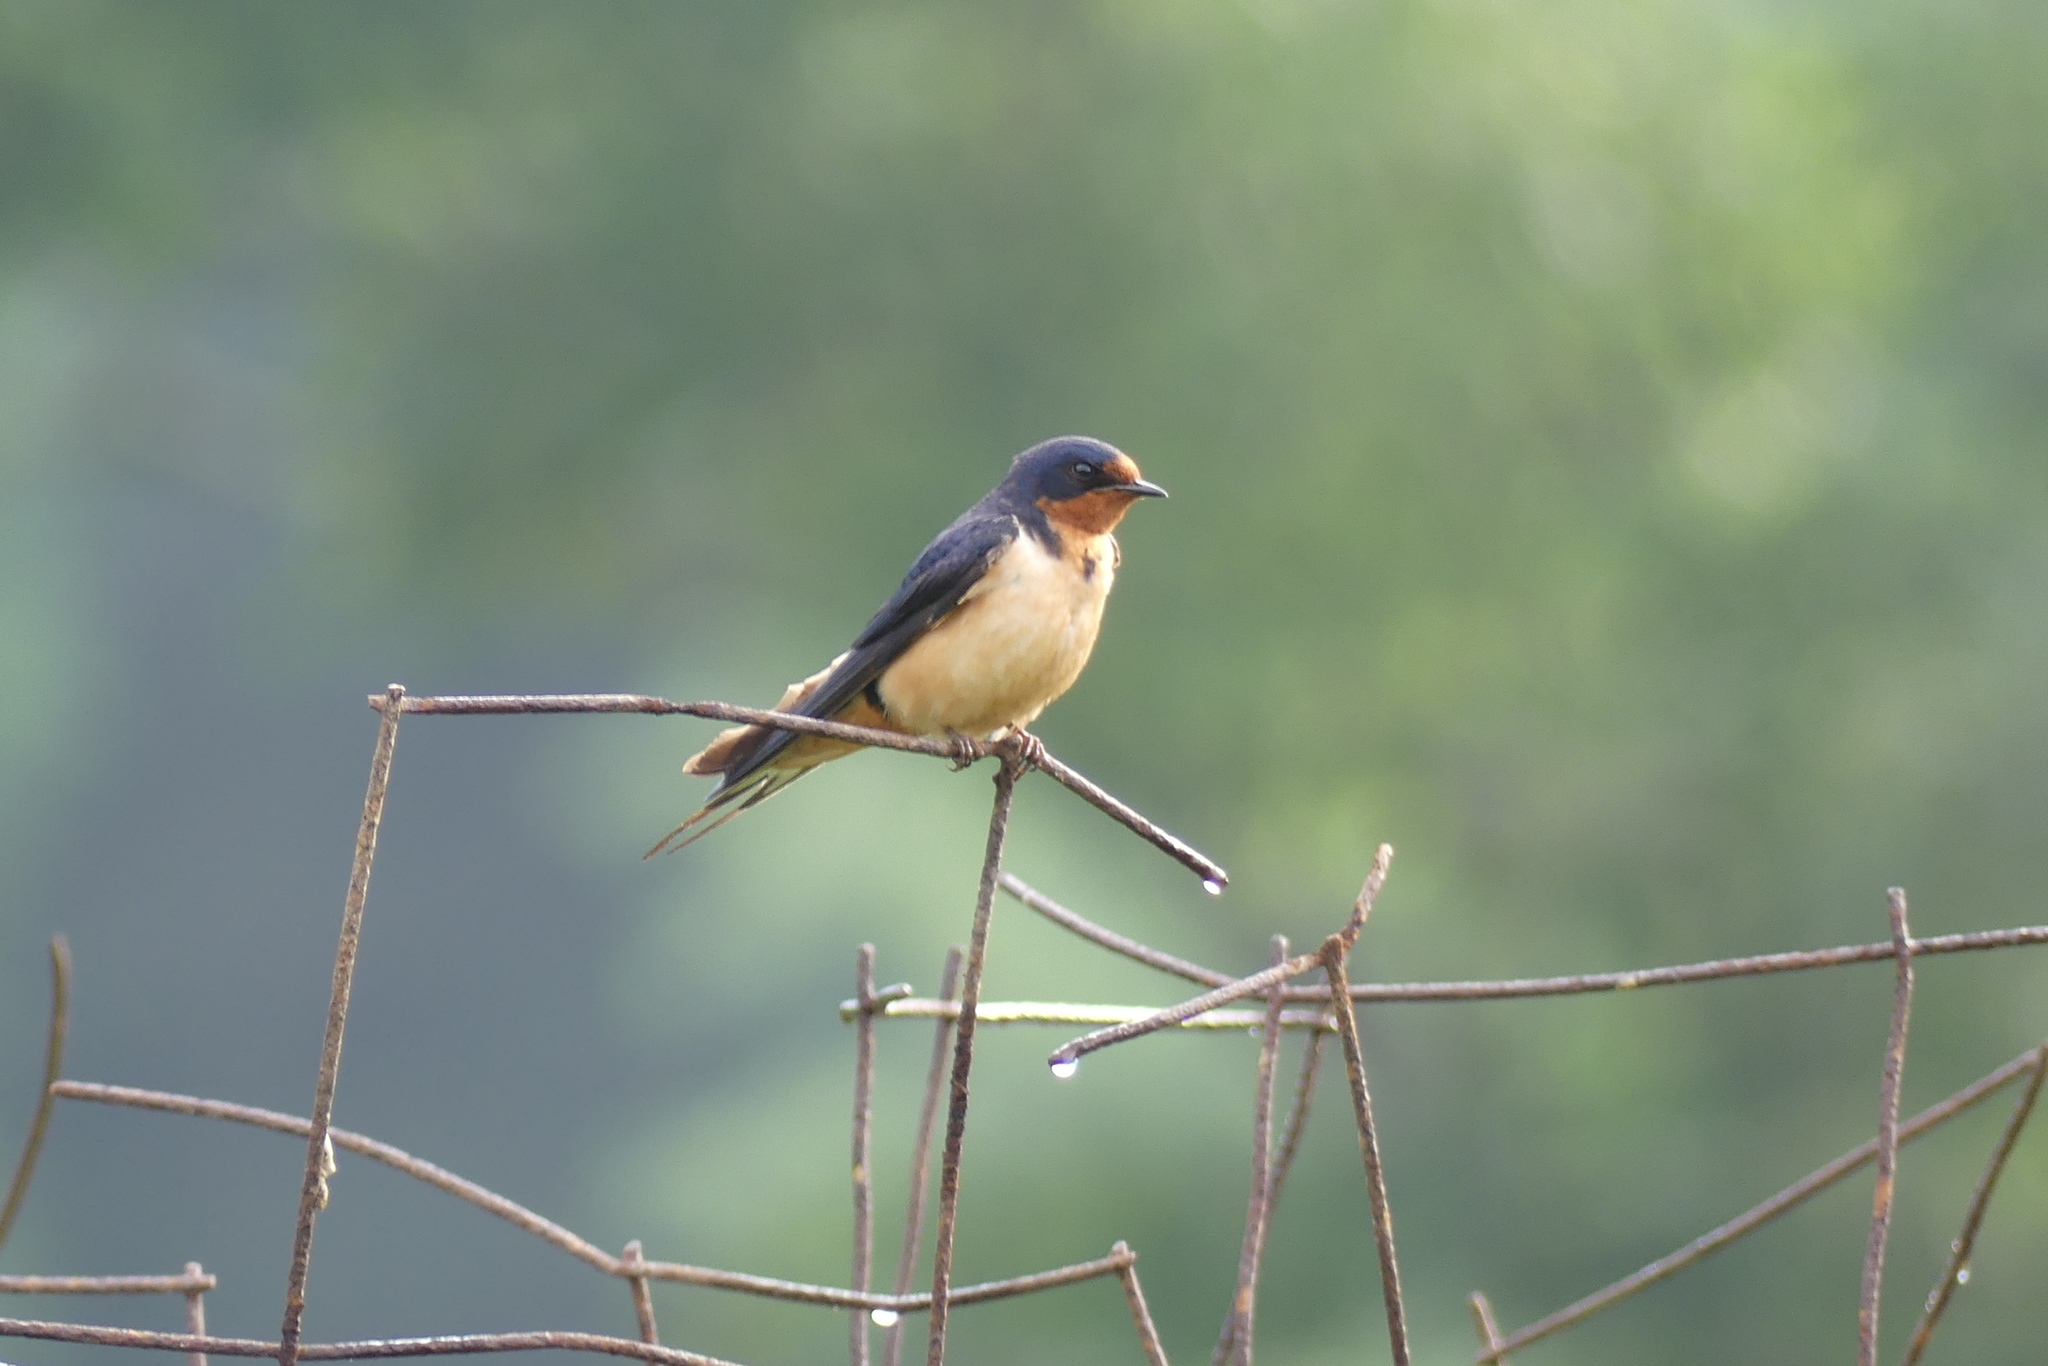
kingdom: Animalia
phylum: Chordata
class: Aves
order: Passeriformes
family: Hirundinidae
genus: Hirundo
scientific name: Hirundo rustica
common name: Barn swallow
